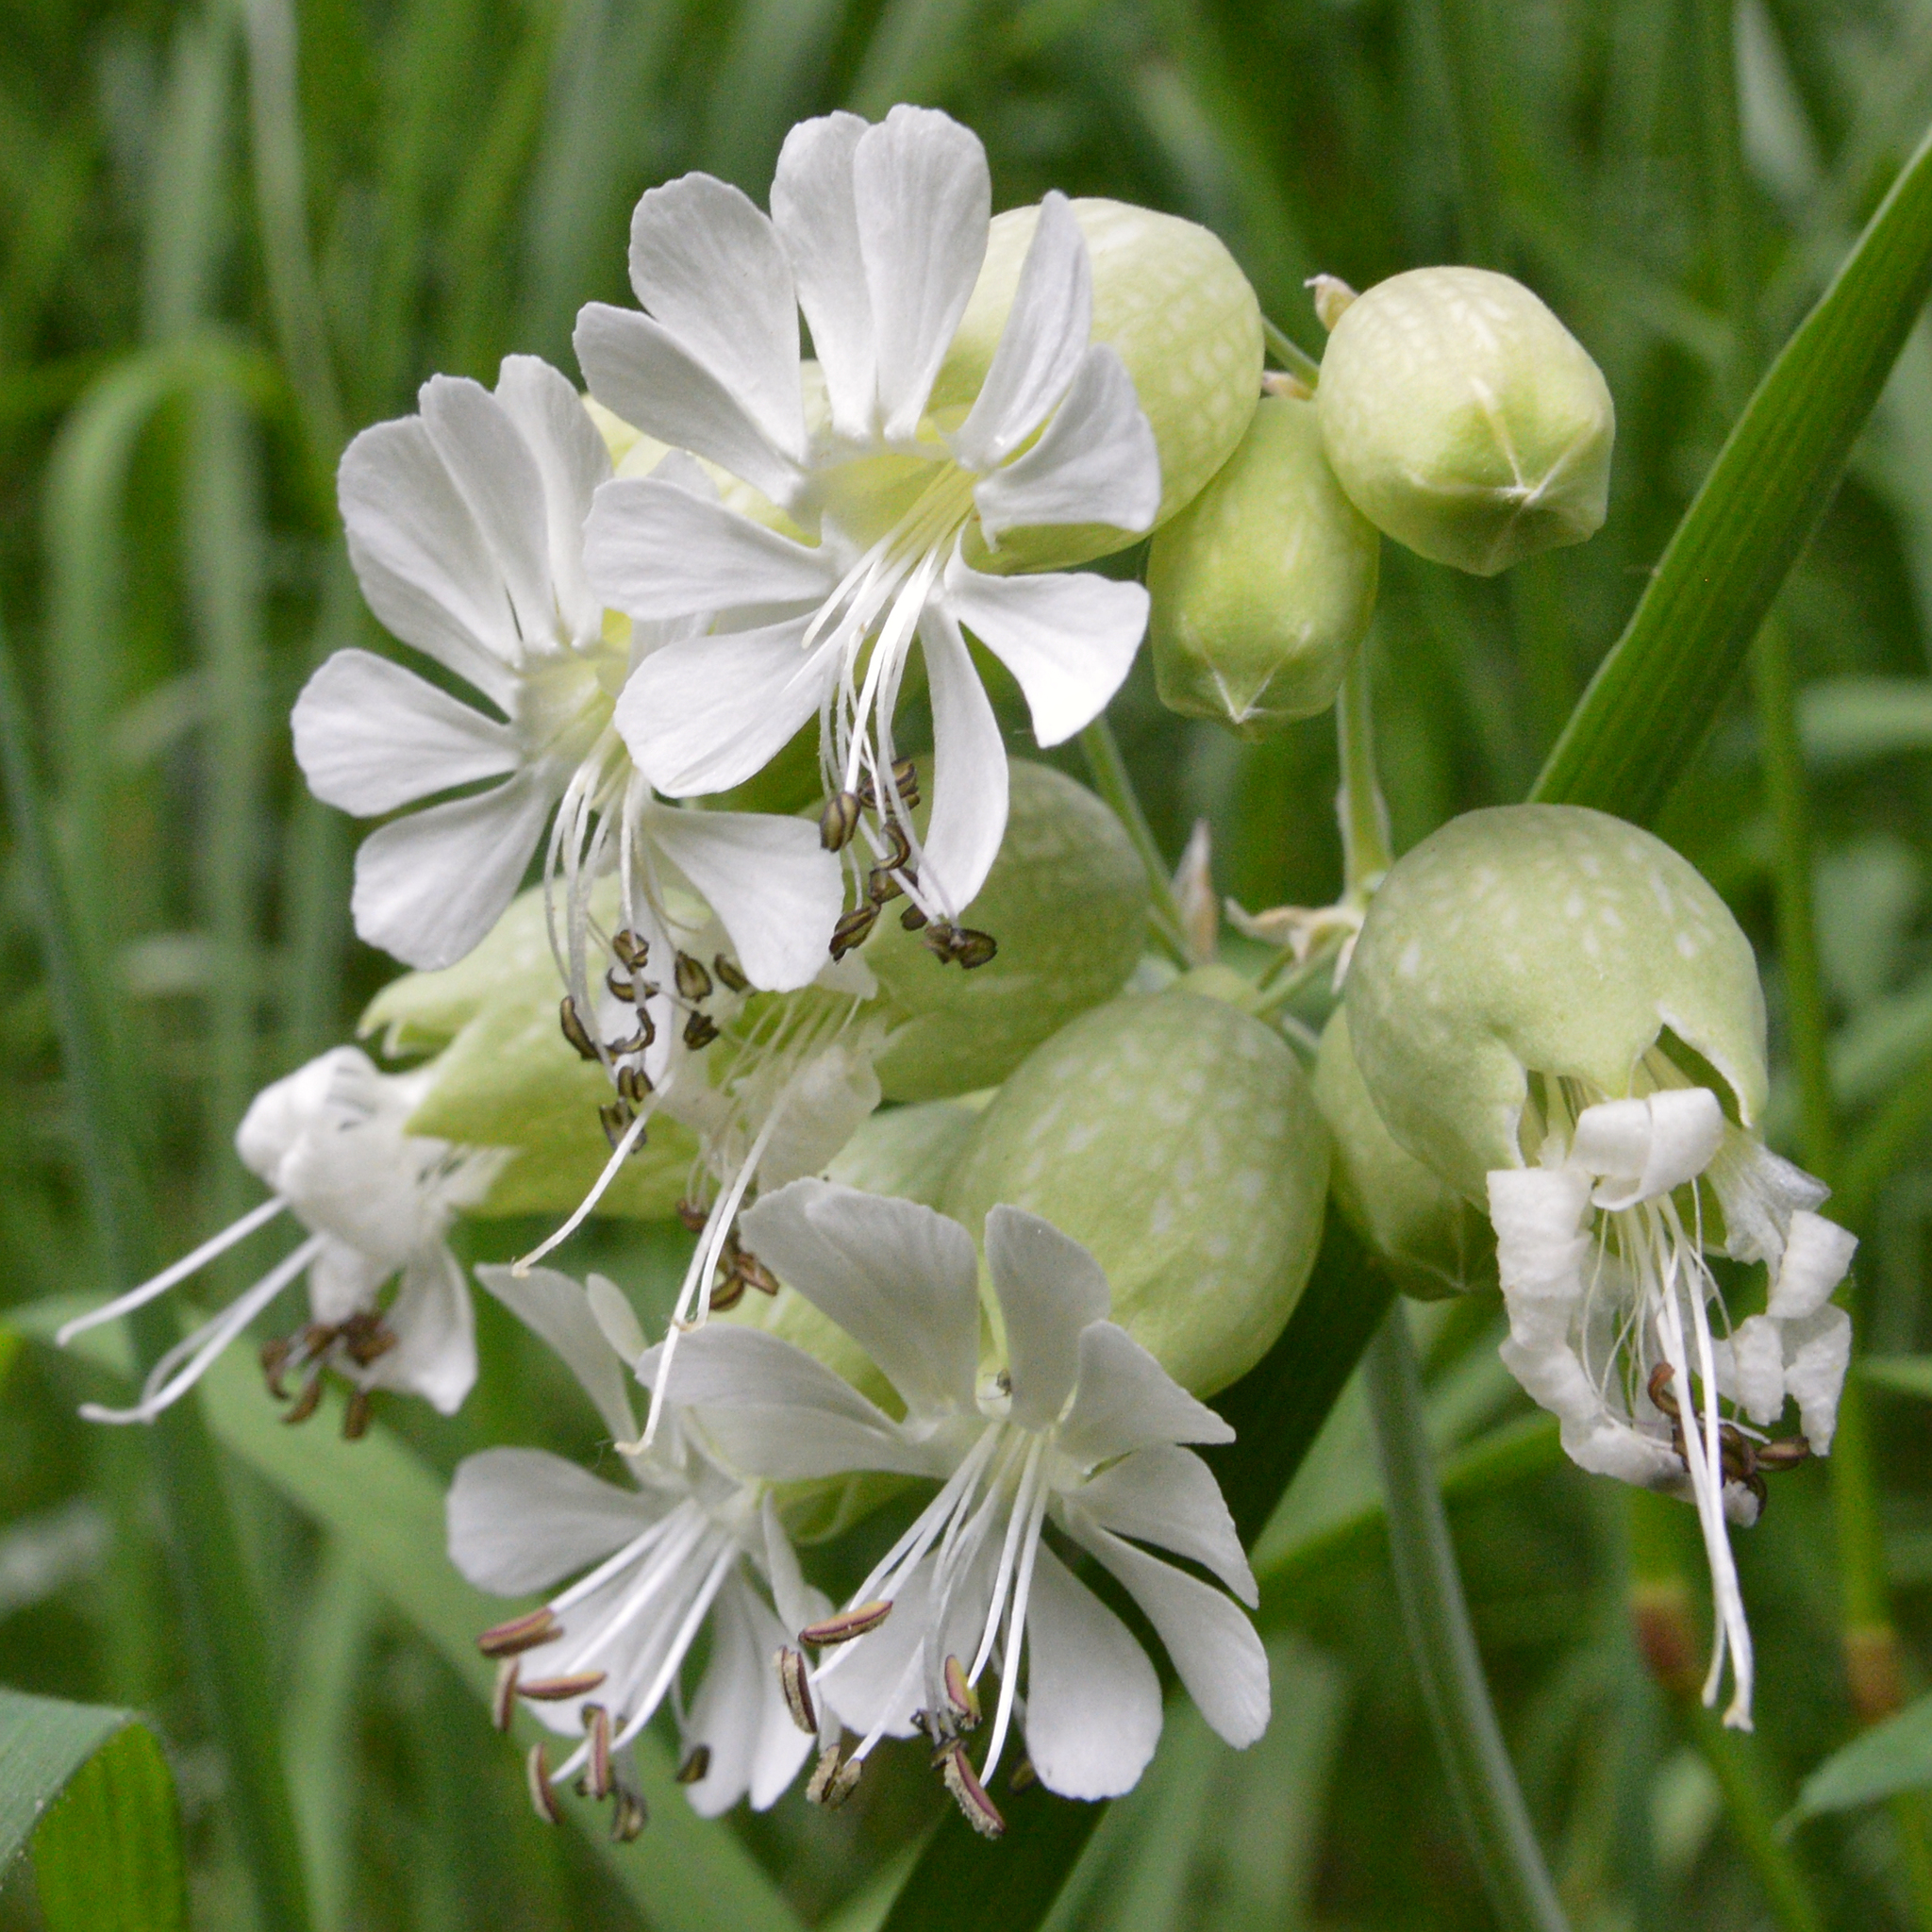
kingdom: Plantae
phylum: Tracheophyta
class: Magnoliopsida
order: Caryophyllales
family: Caryophyllaceae
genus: Silene
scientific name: Silene vulgaris
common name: Bladder campion
